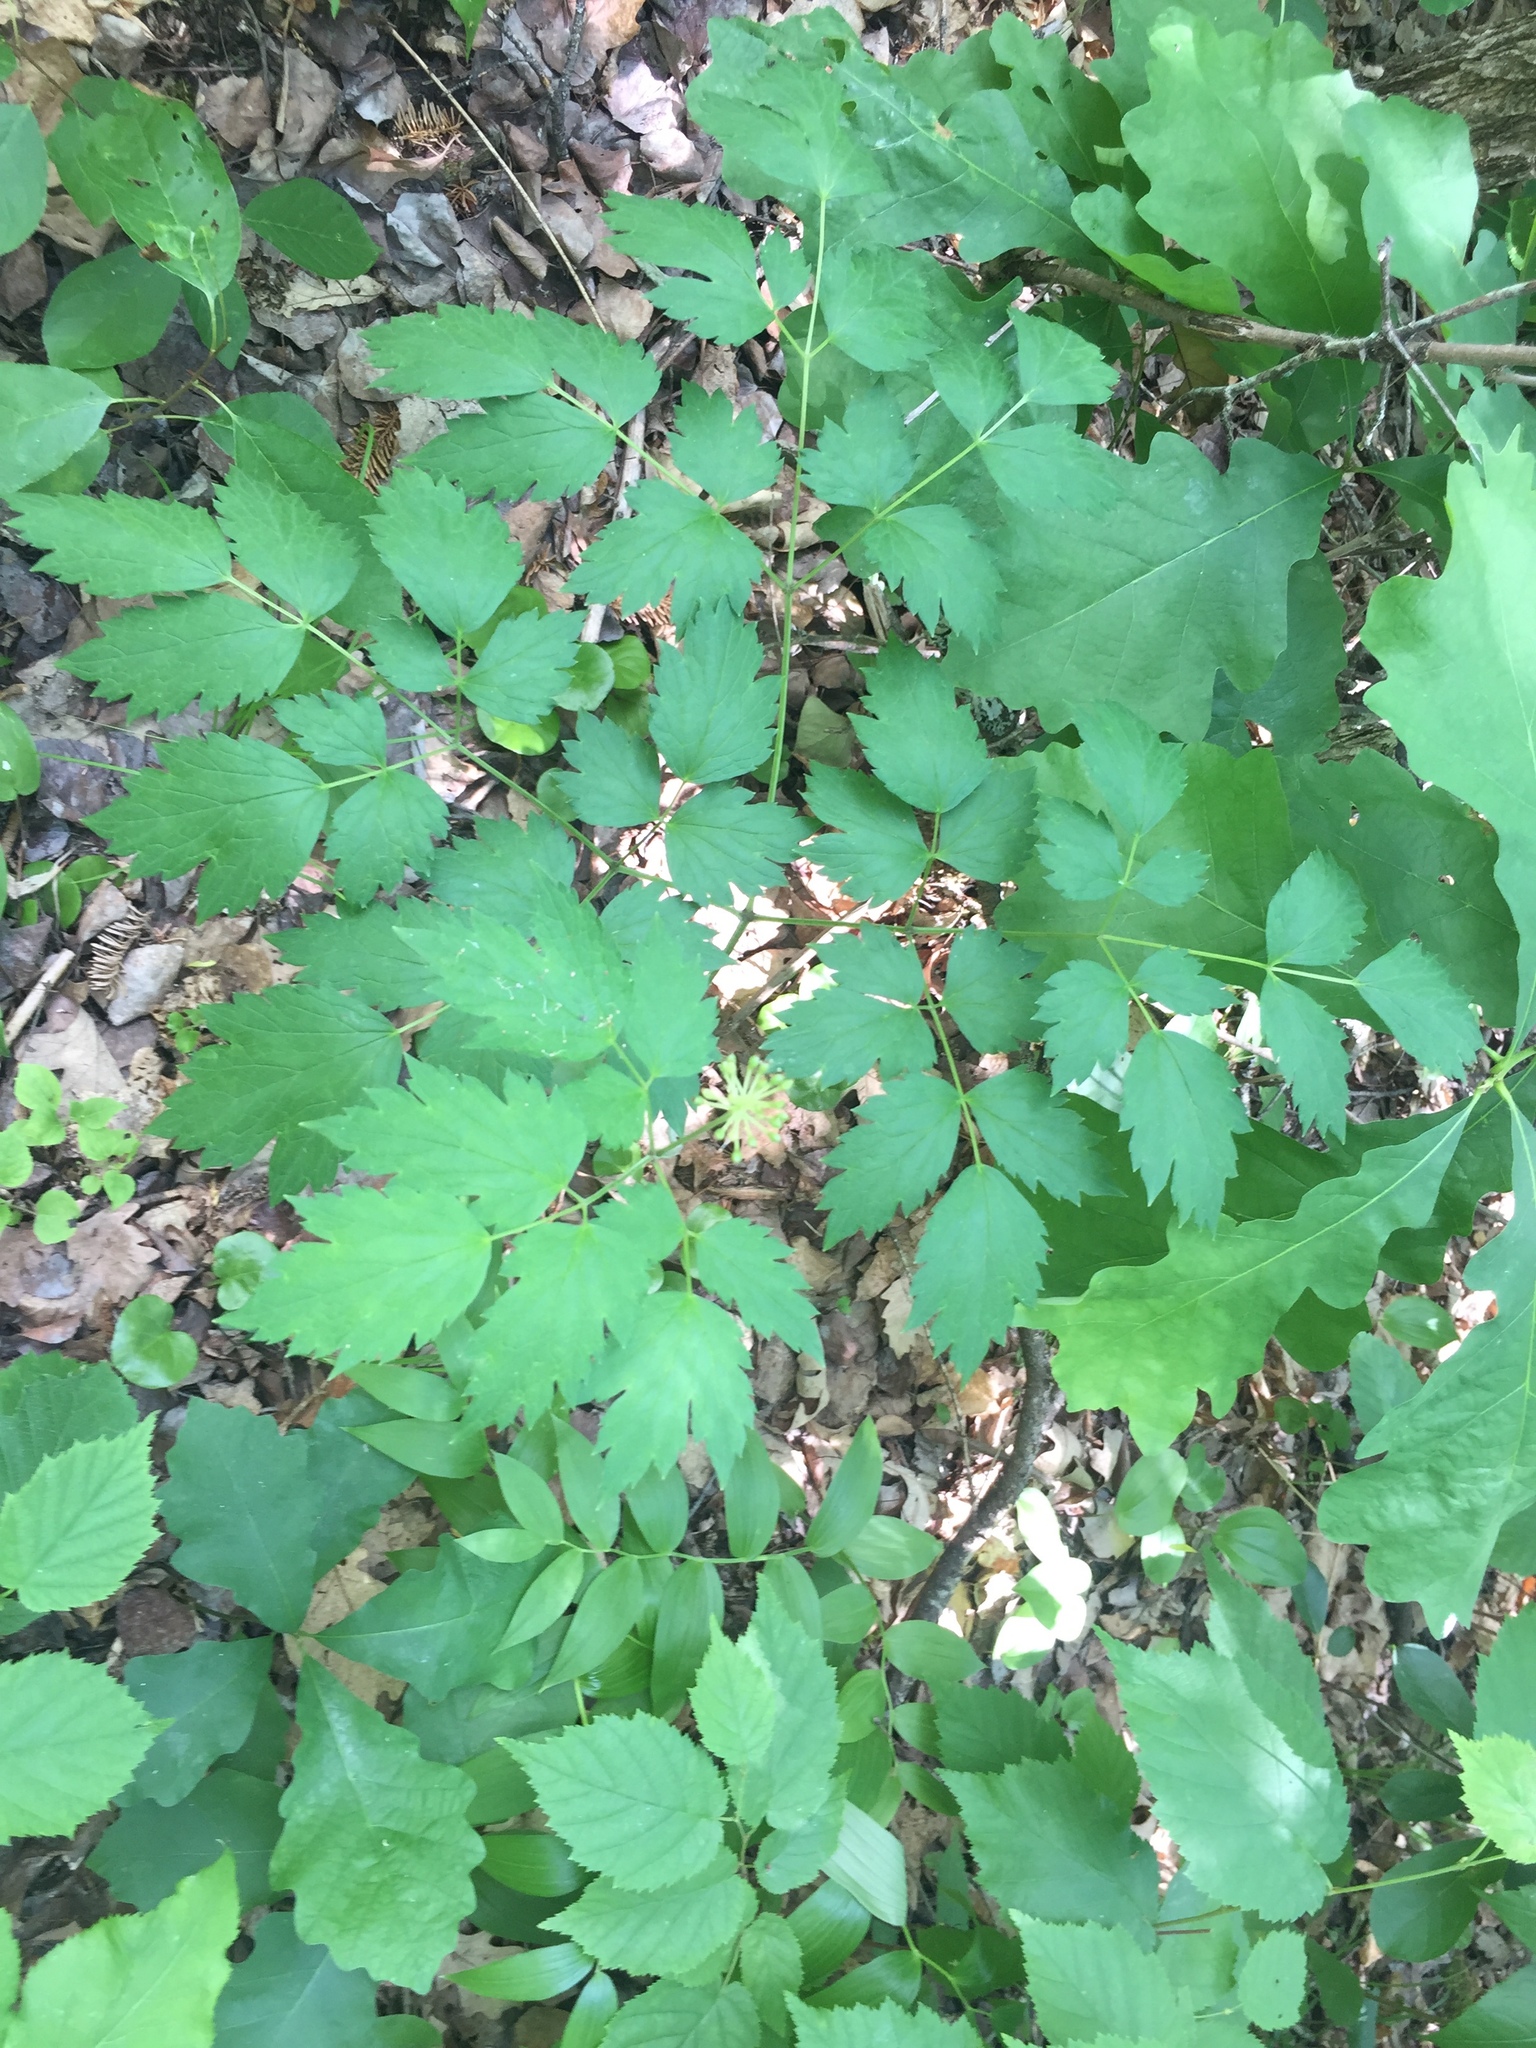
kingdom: Plantae
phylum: Tracheophyta
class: Magnoliopsida
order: Ranunculales
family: Ranunculaceae
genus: Thalictrum
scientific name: Thalictrum dasycarpum
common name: Purple meadow-rue
